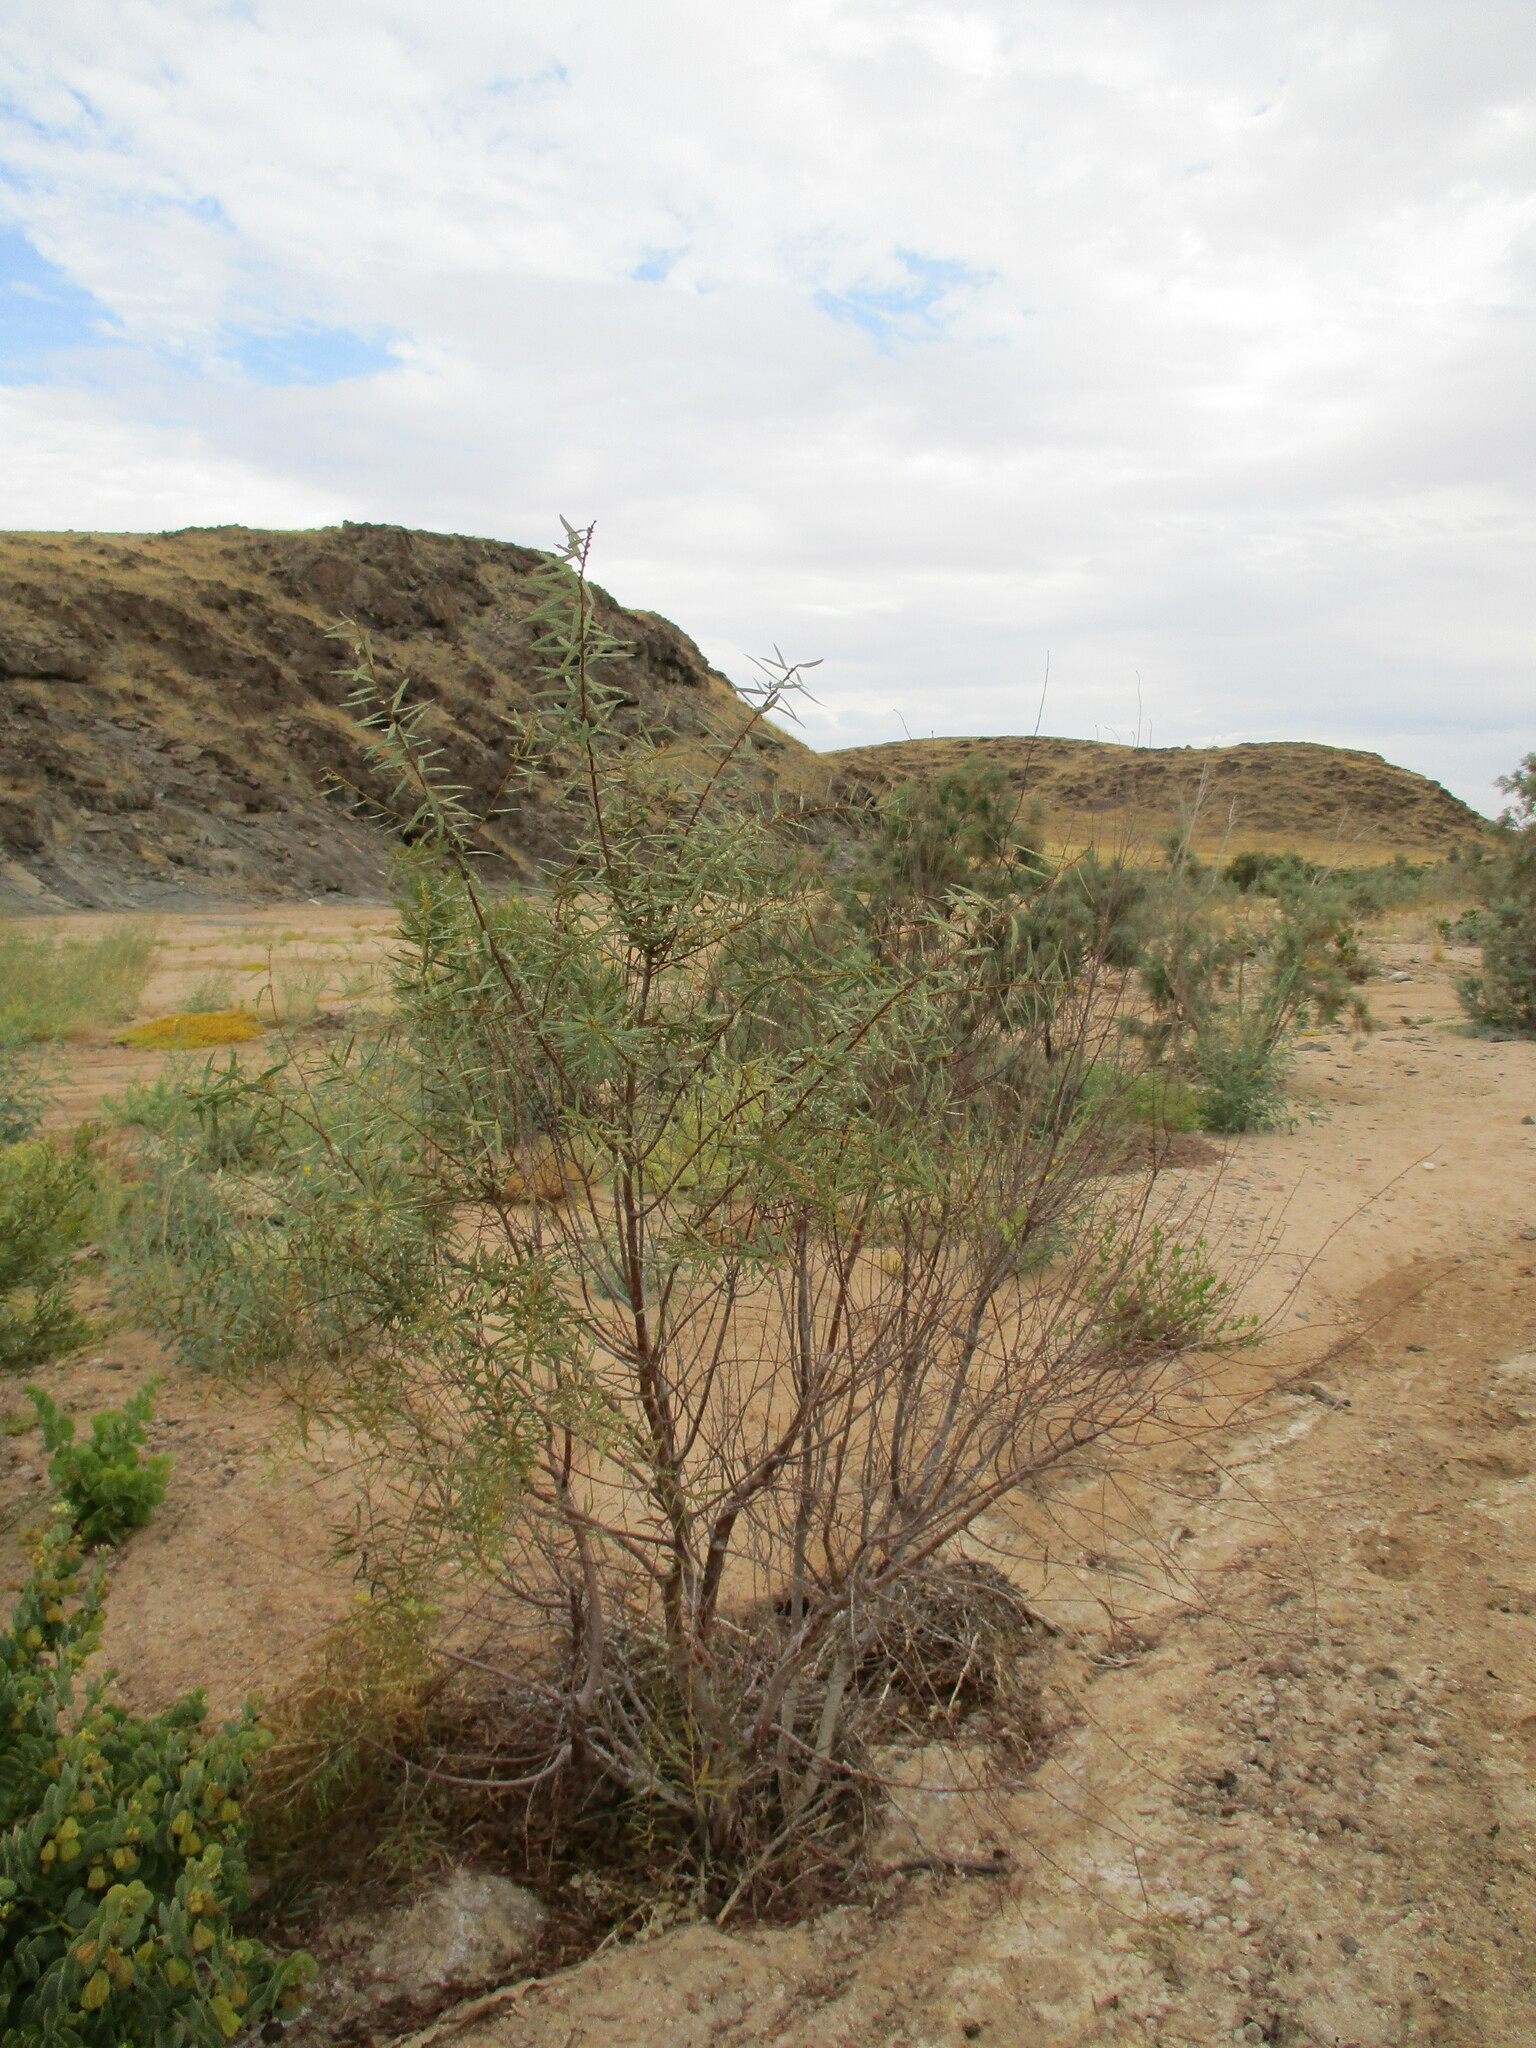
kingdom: Plantae
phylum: Tracheophyta
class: Magnoliopsida
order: Ericales
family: Ebenaceae
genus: Euclea
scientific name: Euclea pseudebenus
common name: Black ebony
